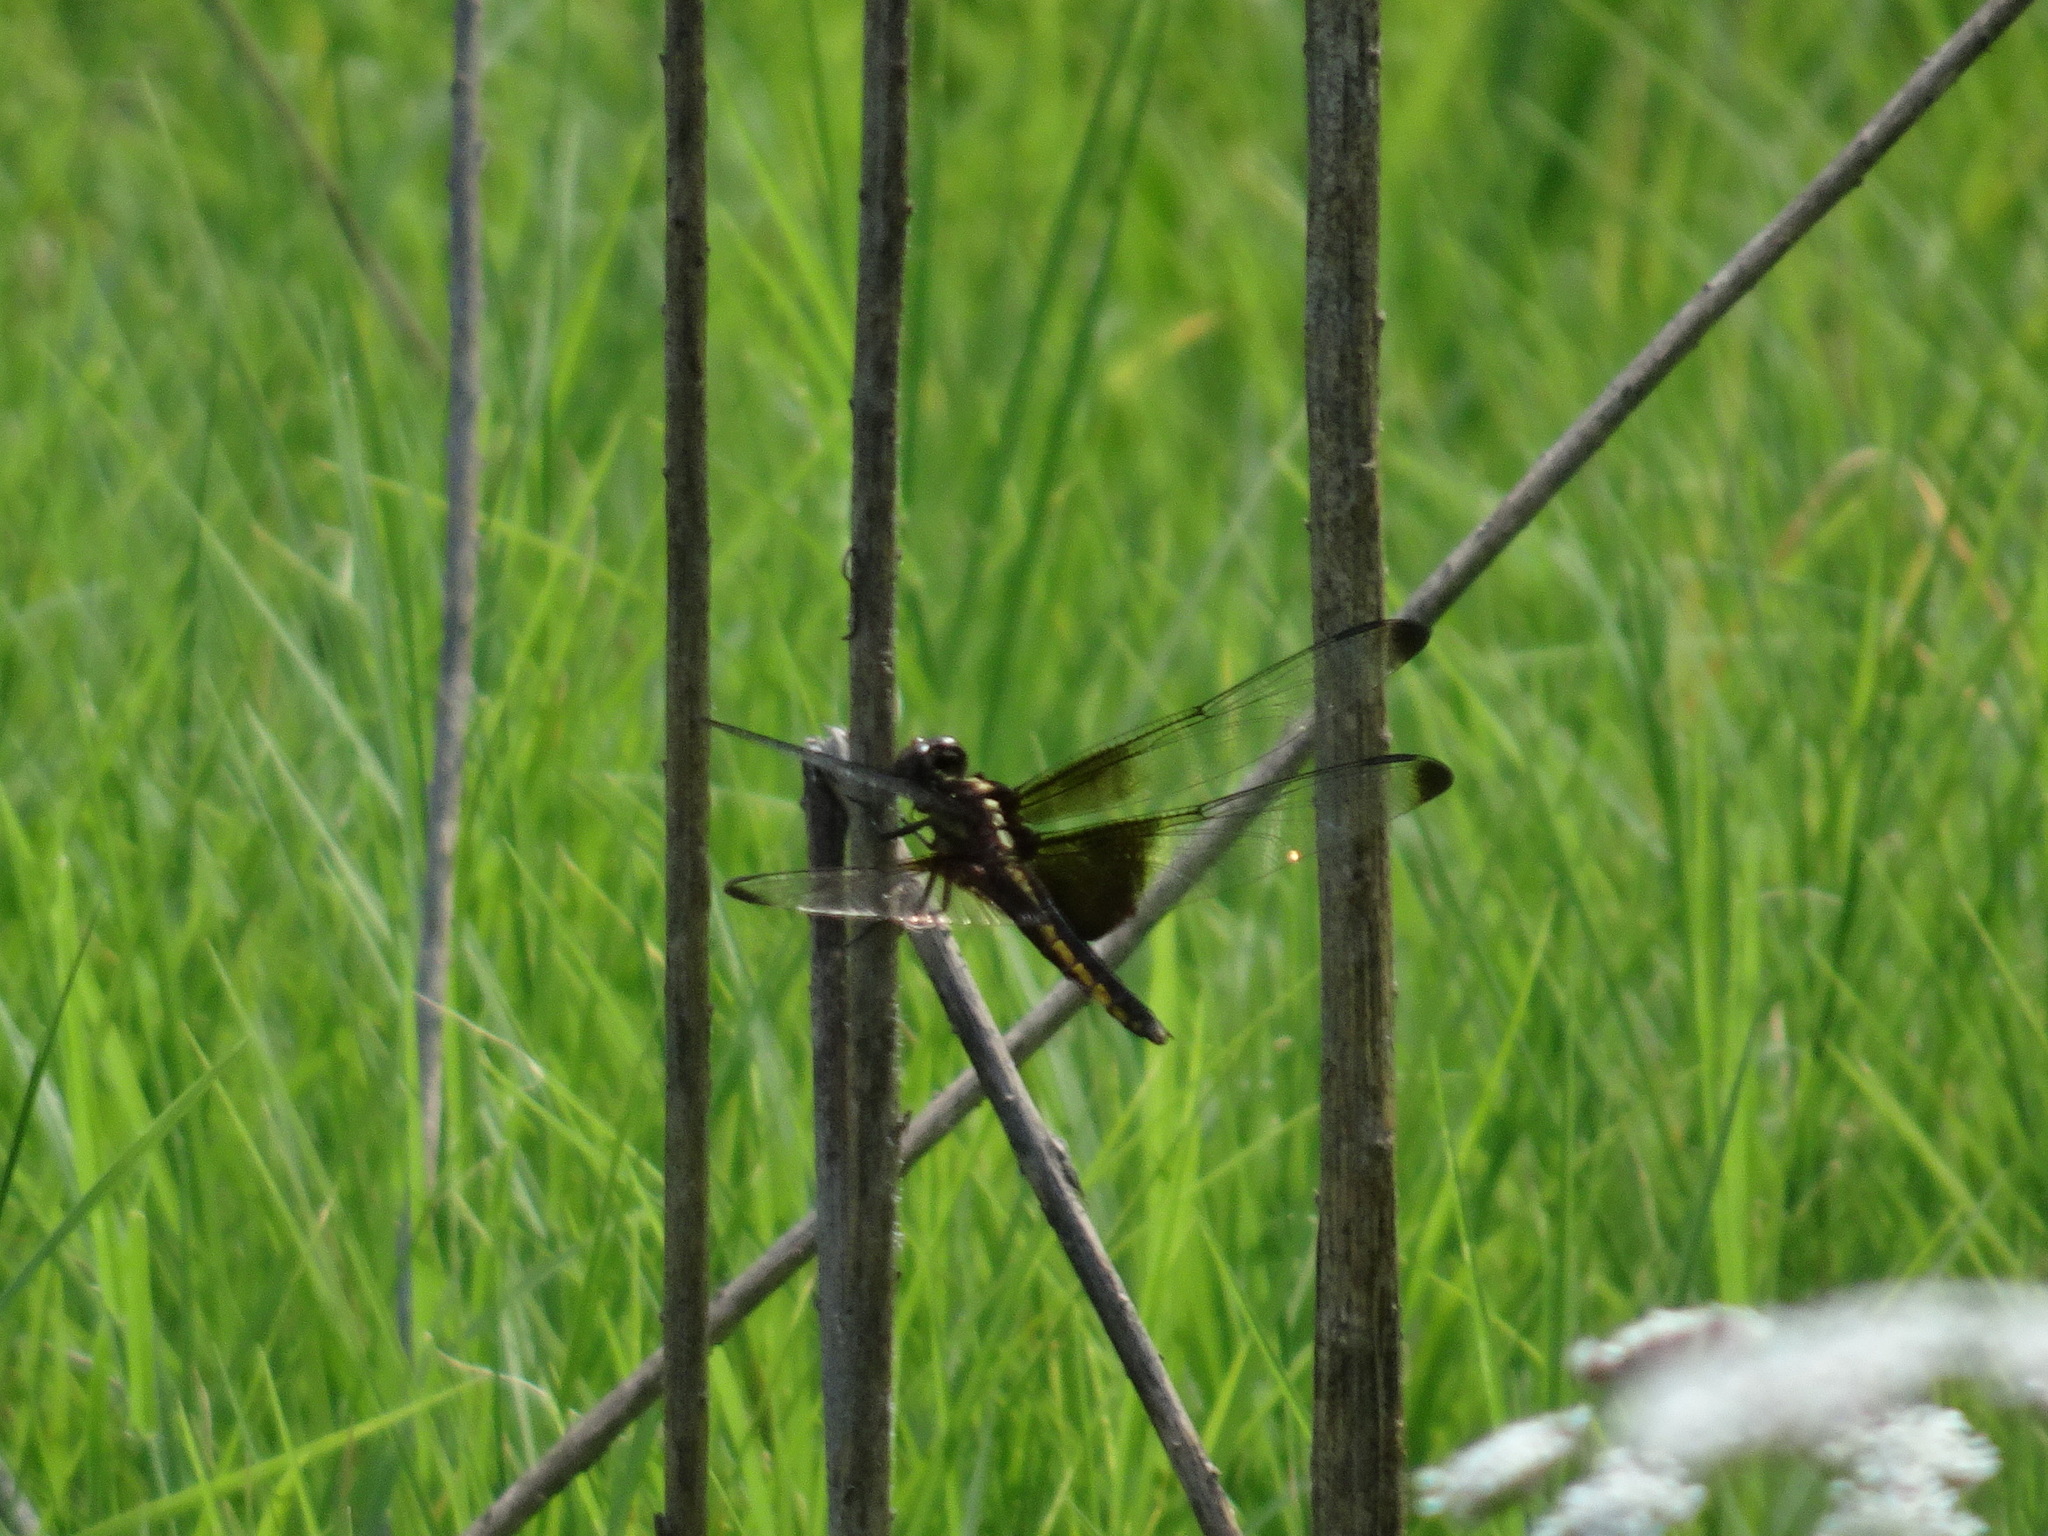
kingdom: Animalia
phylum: Arthropoda
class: Insecta
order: Odonata
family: Libellulidae
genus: Libellula
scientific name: Libellula luctuosa
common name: Widow skimmer
